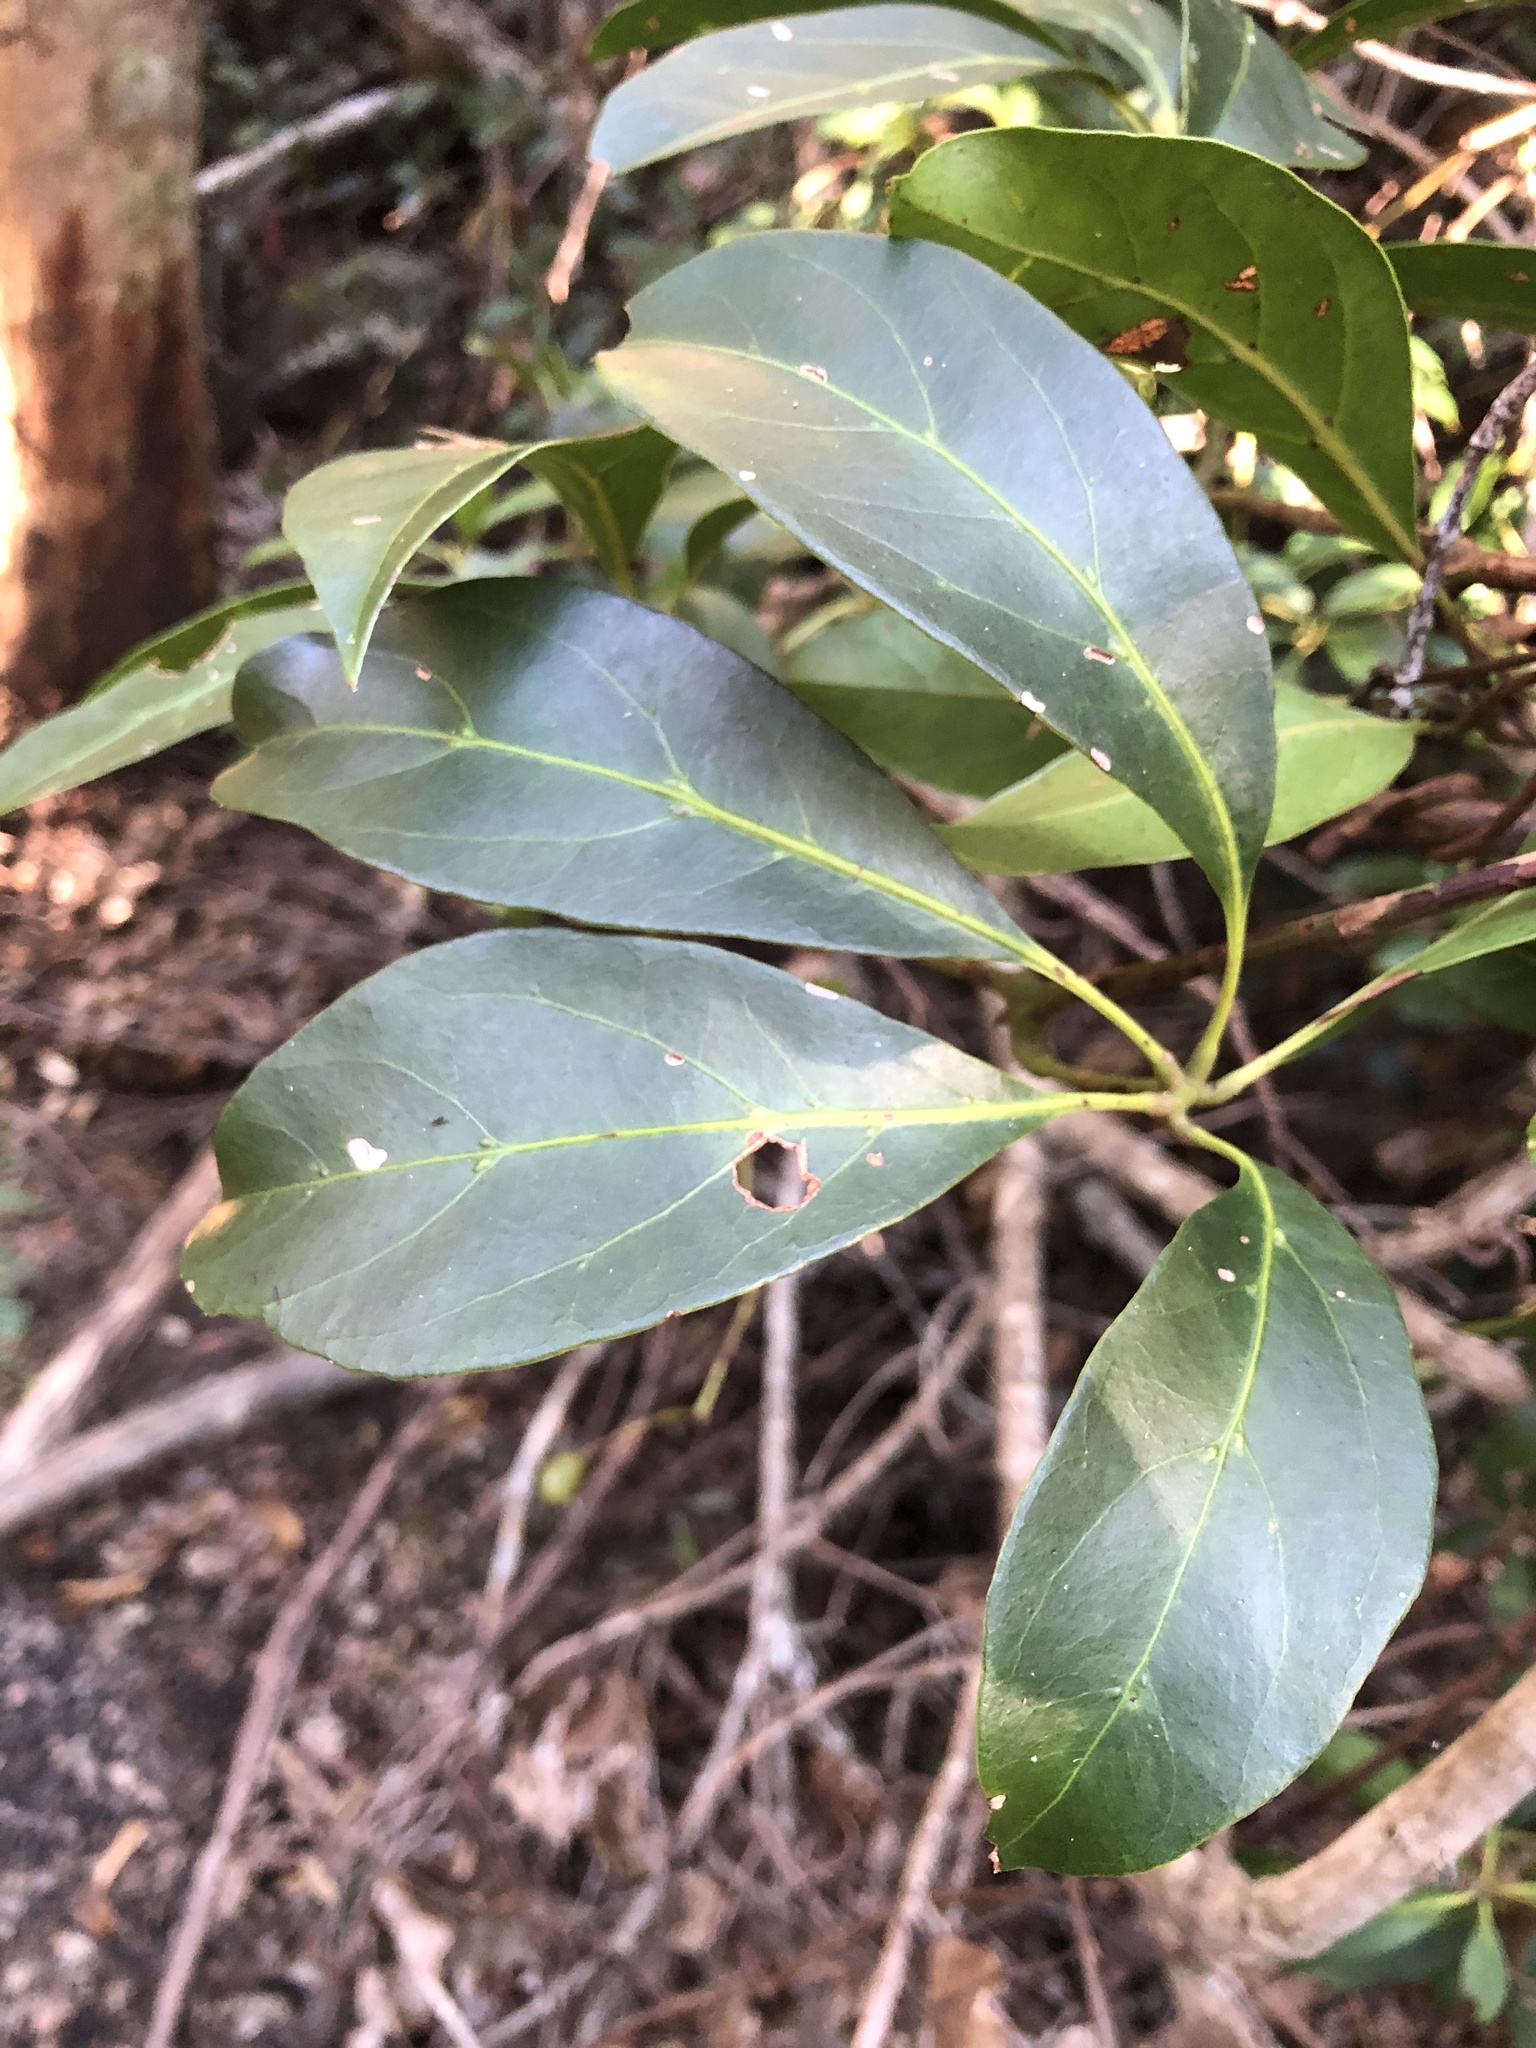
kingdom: Plantae
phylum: Tracheophyta
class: Magnoliopsida
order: Vitales
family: Vitaceae
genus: Nothocissus
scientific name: Nothocissus sterculiifolia
